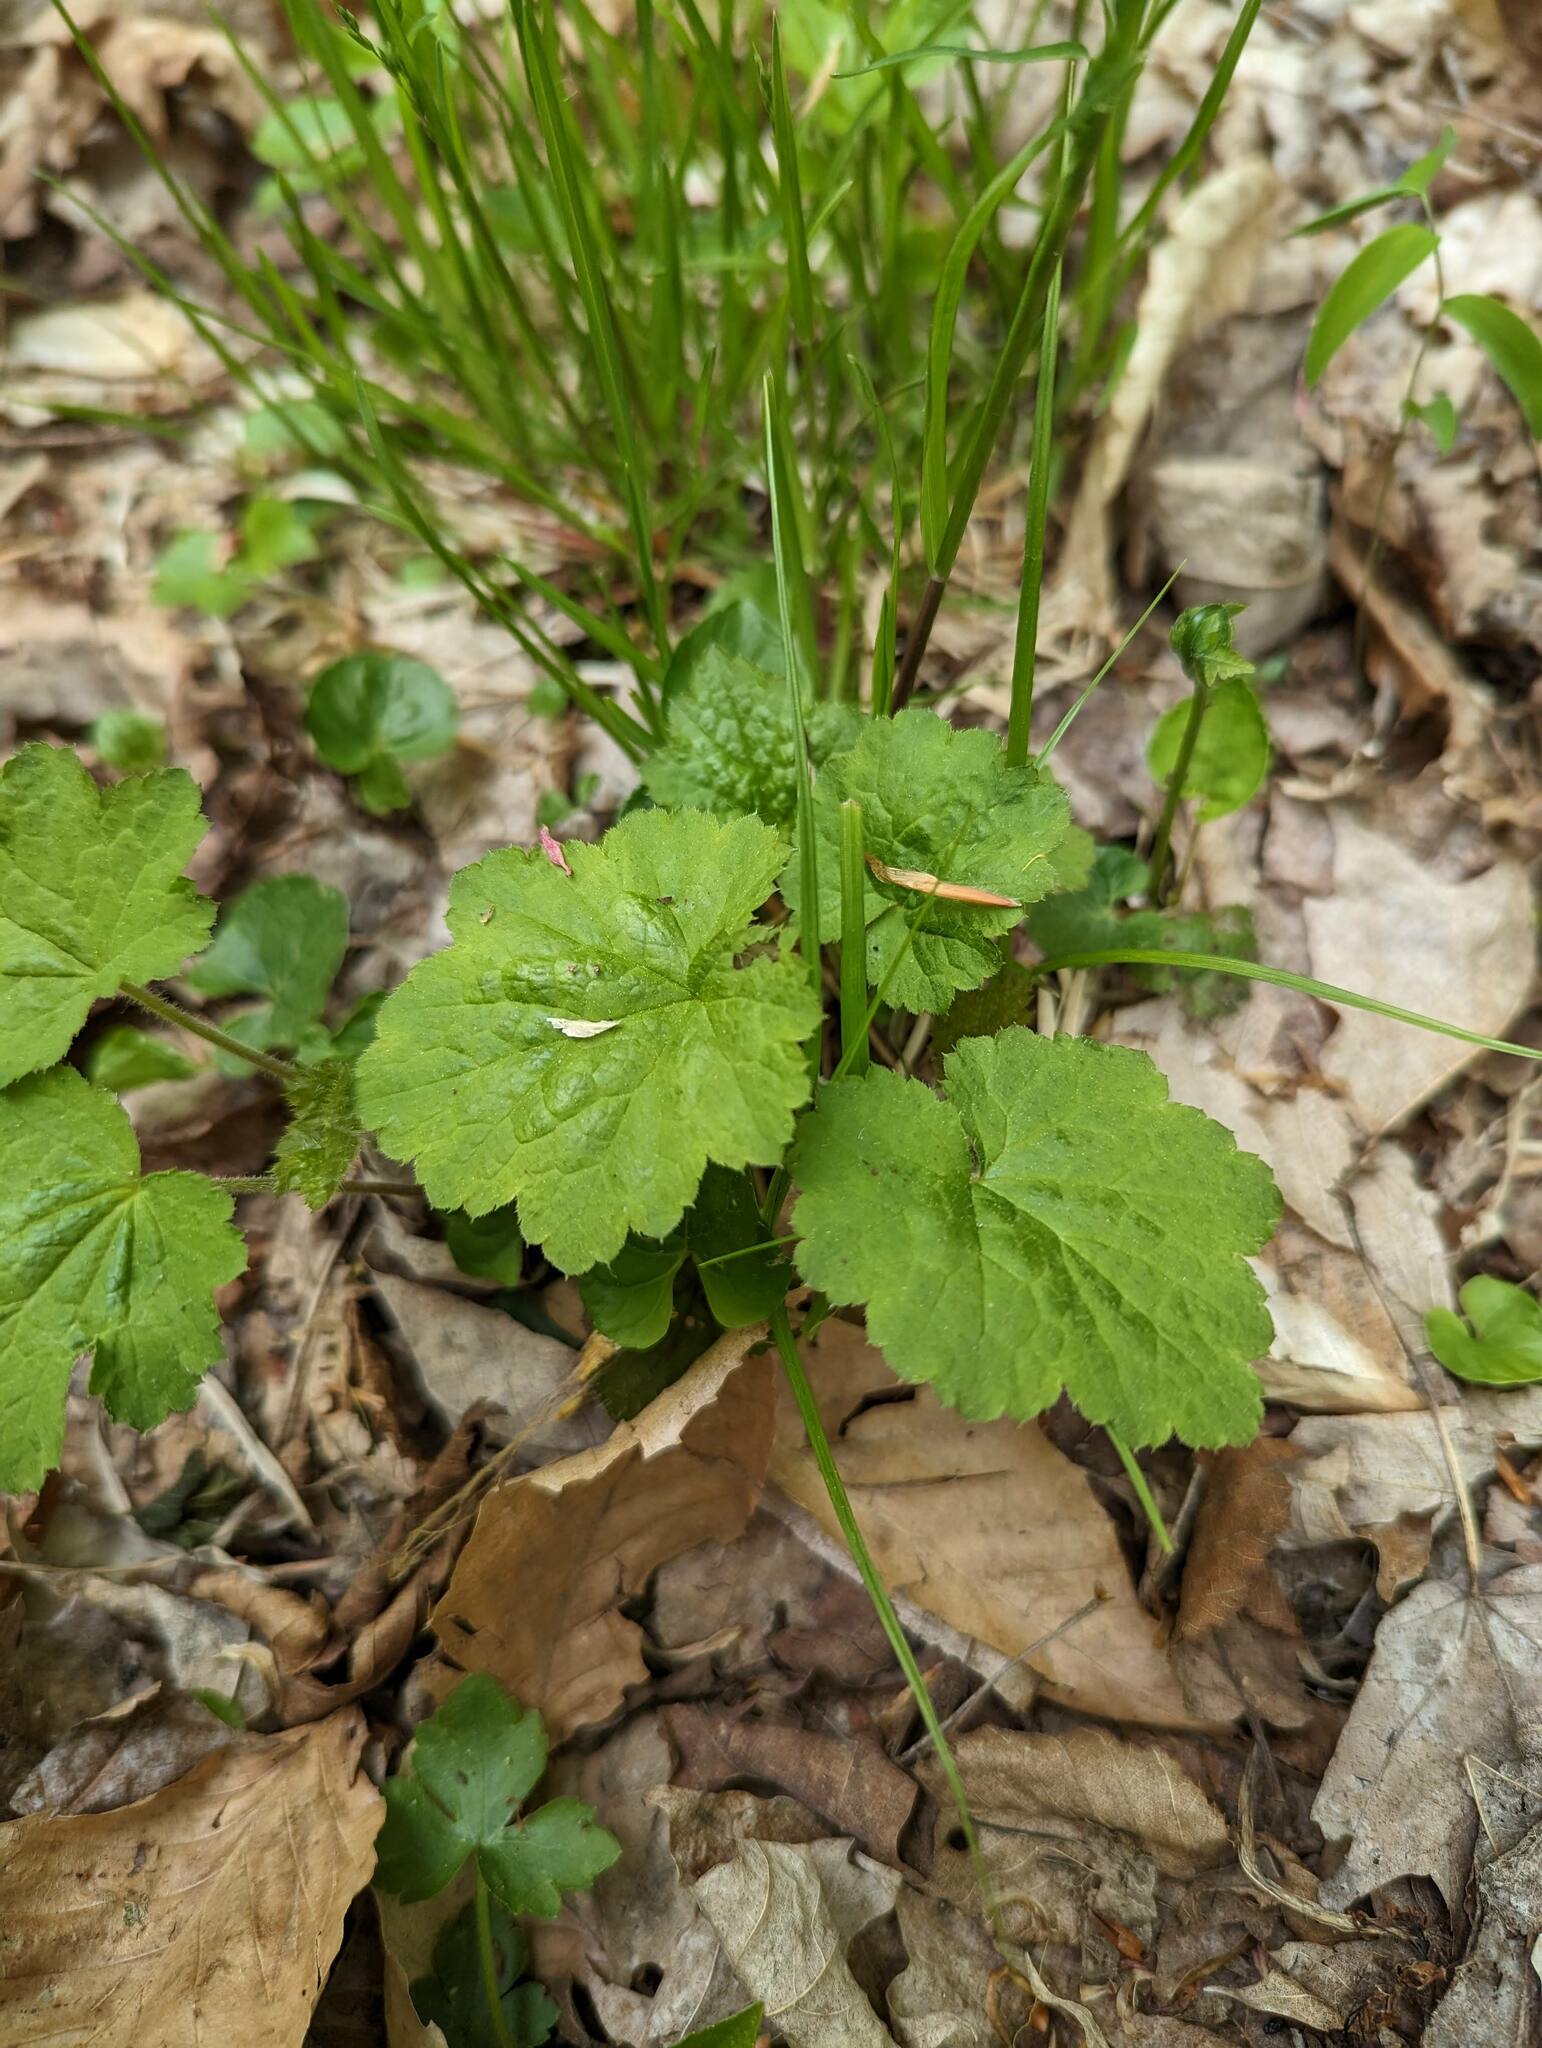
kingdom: Plantae
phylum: Tracheophyta
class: Magnoliopsida
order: Saxifragales
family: Saxifragaceae
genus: Tiarella
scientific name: Tiarella stolonifera
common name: Stoloniferous foamflower
